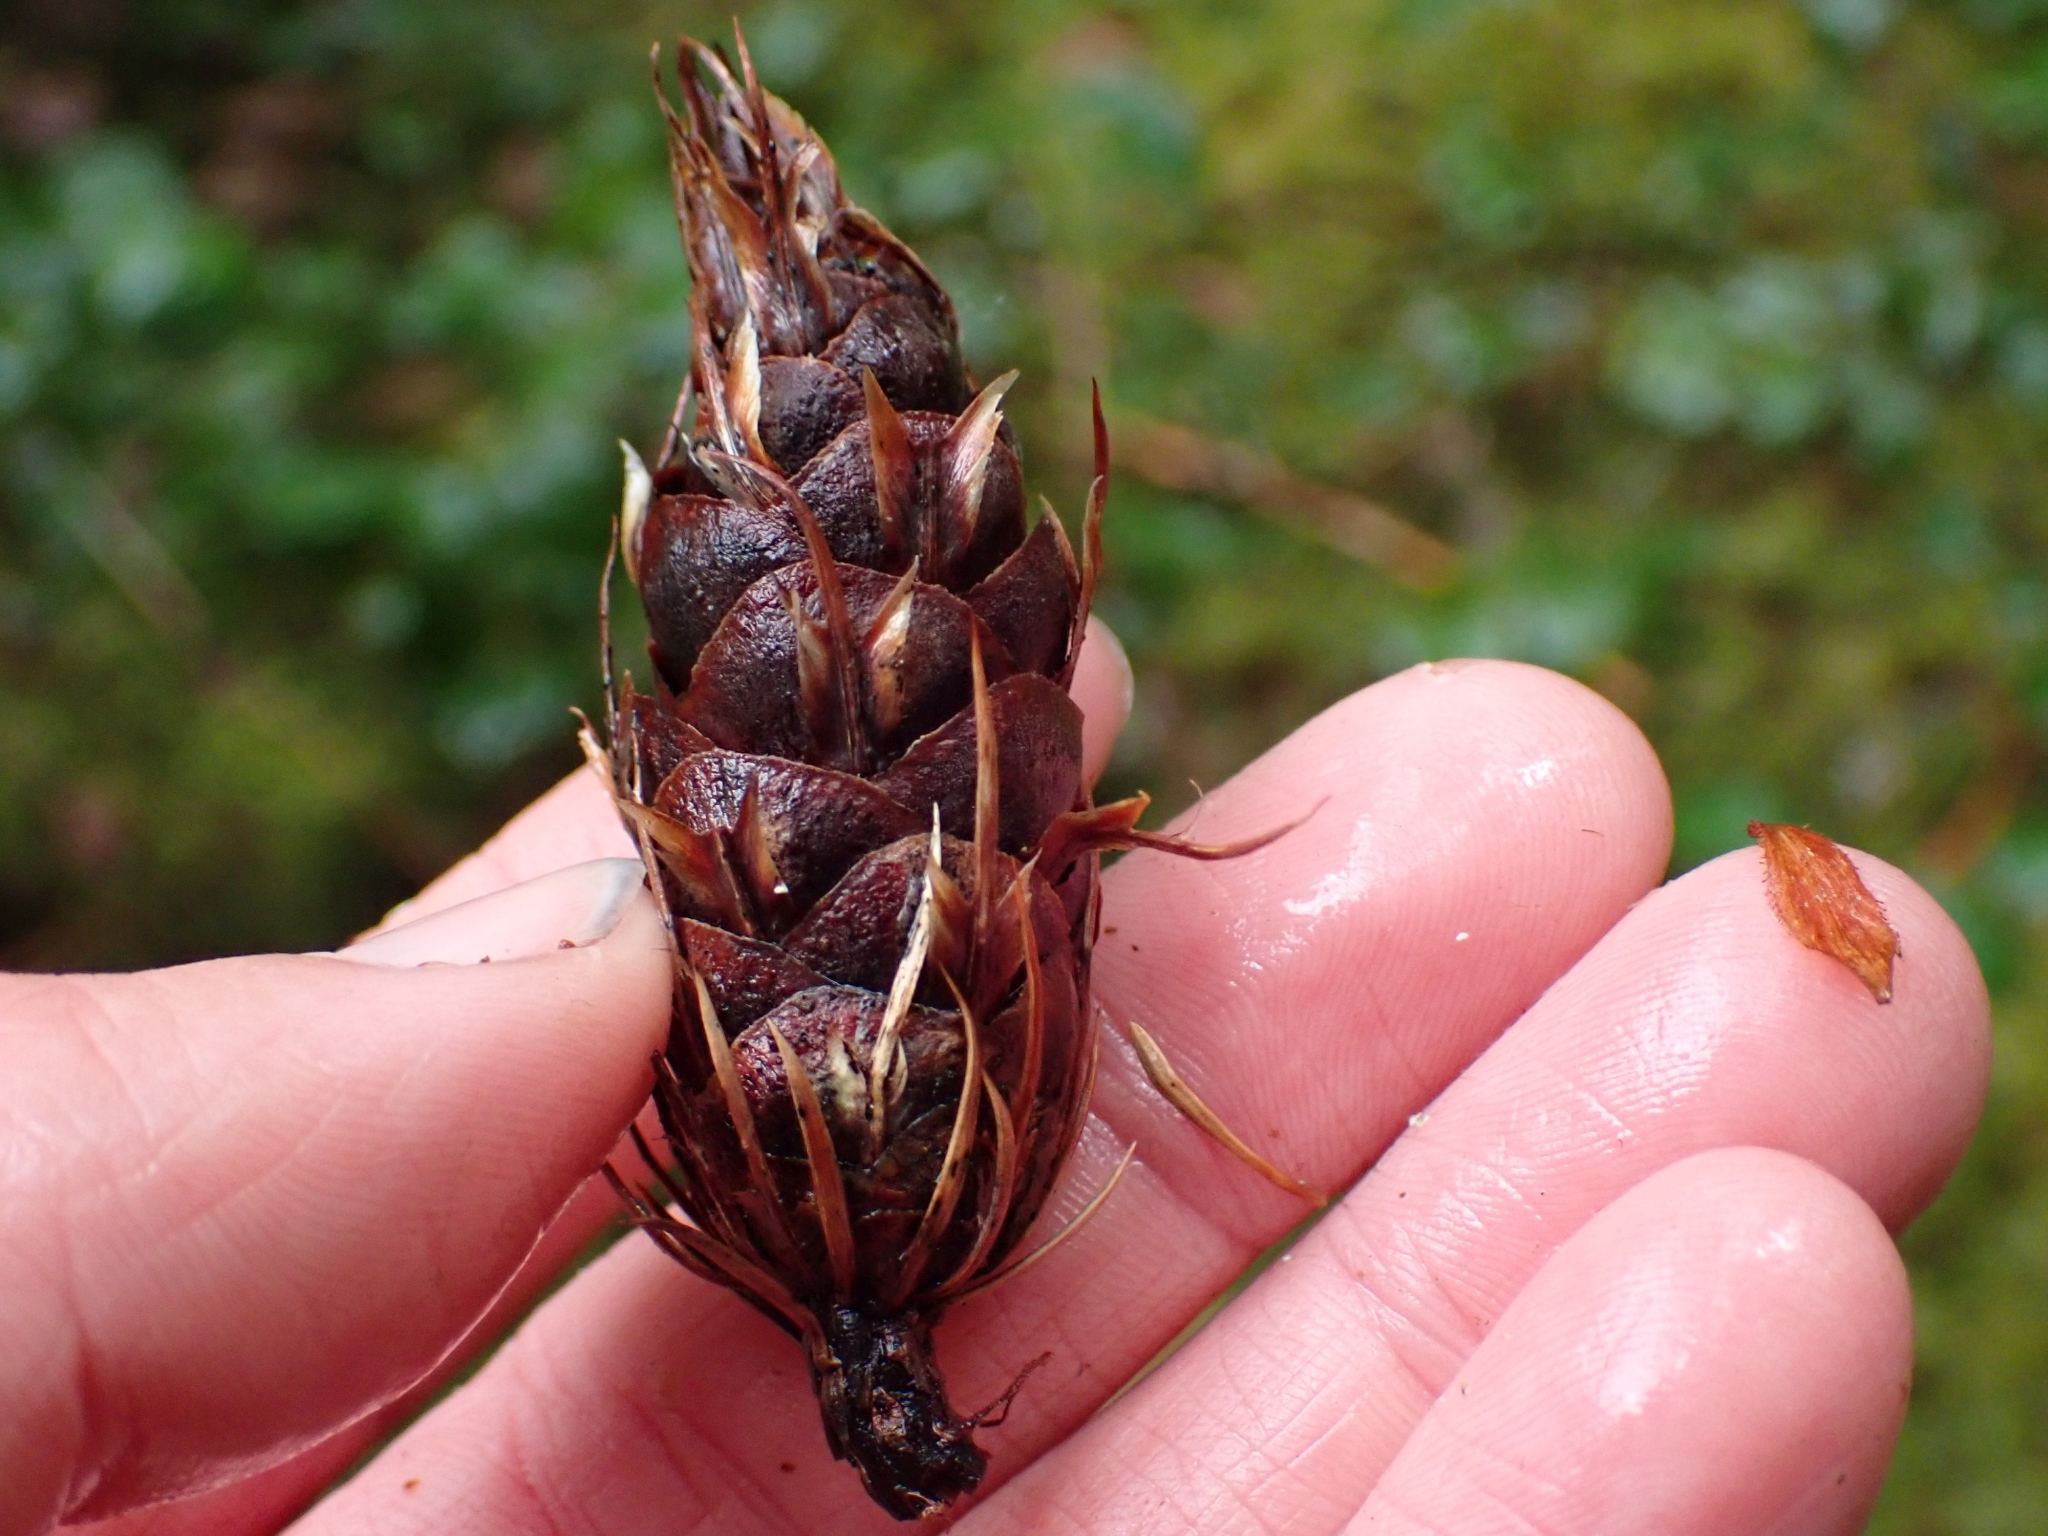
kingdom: Plantae
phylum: Tracheophyta
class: Pinopsida
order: Pinales
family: Pinaceae
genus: Pseudotsuga
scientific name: Pseudotsuga menziesii
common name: Douglas fir
